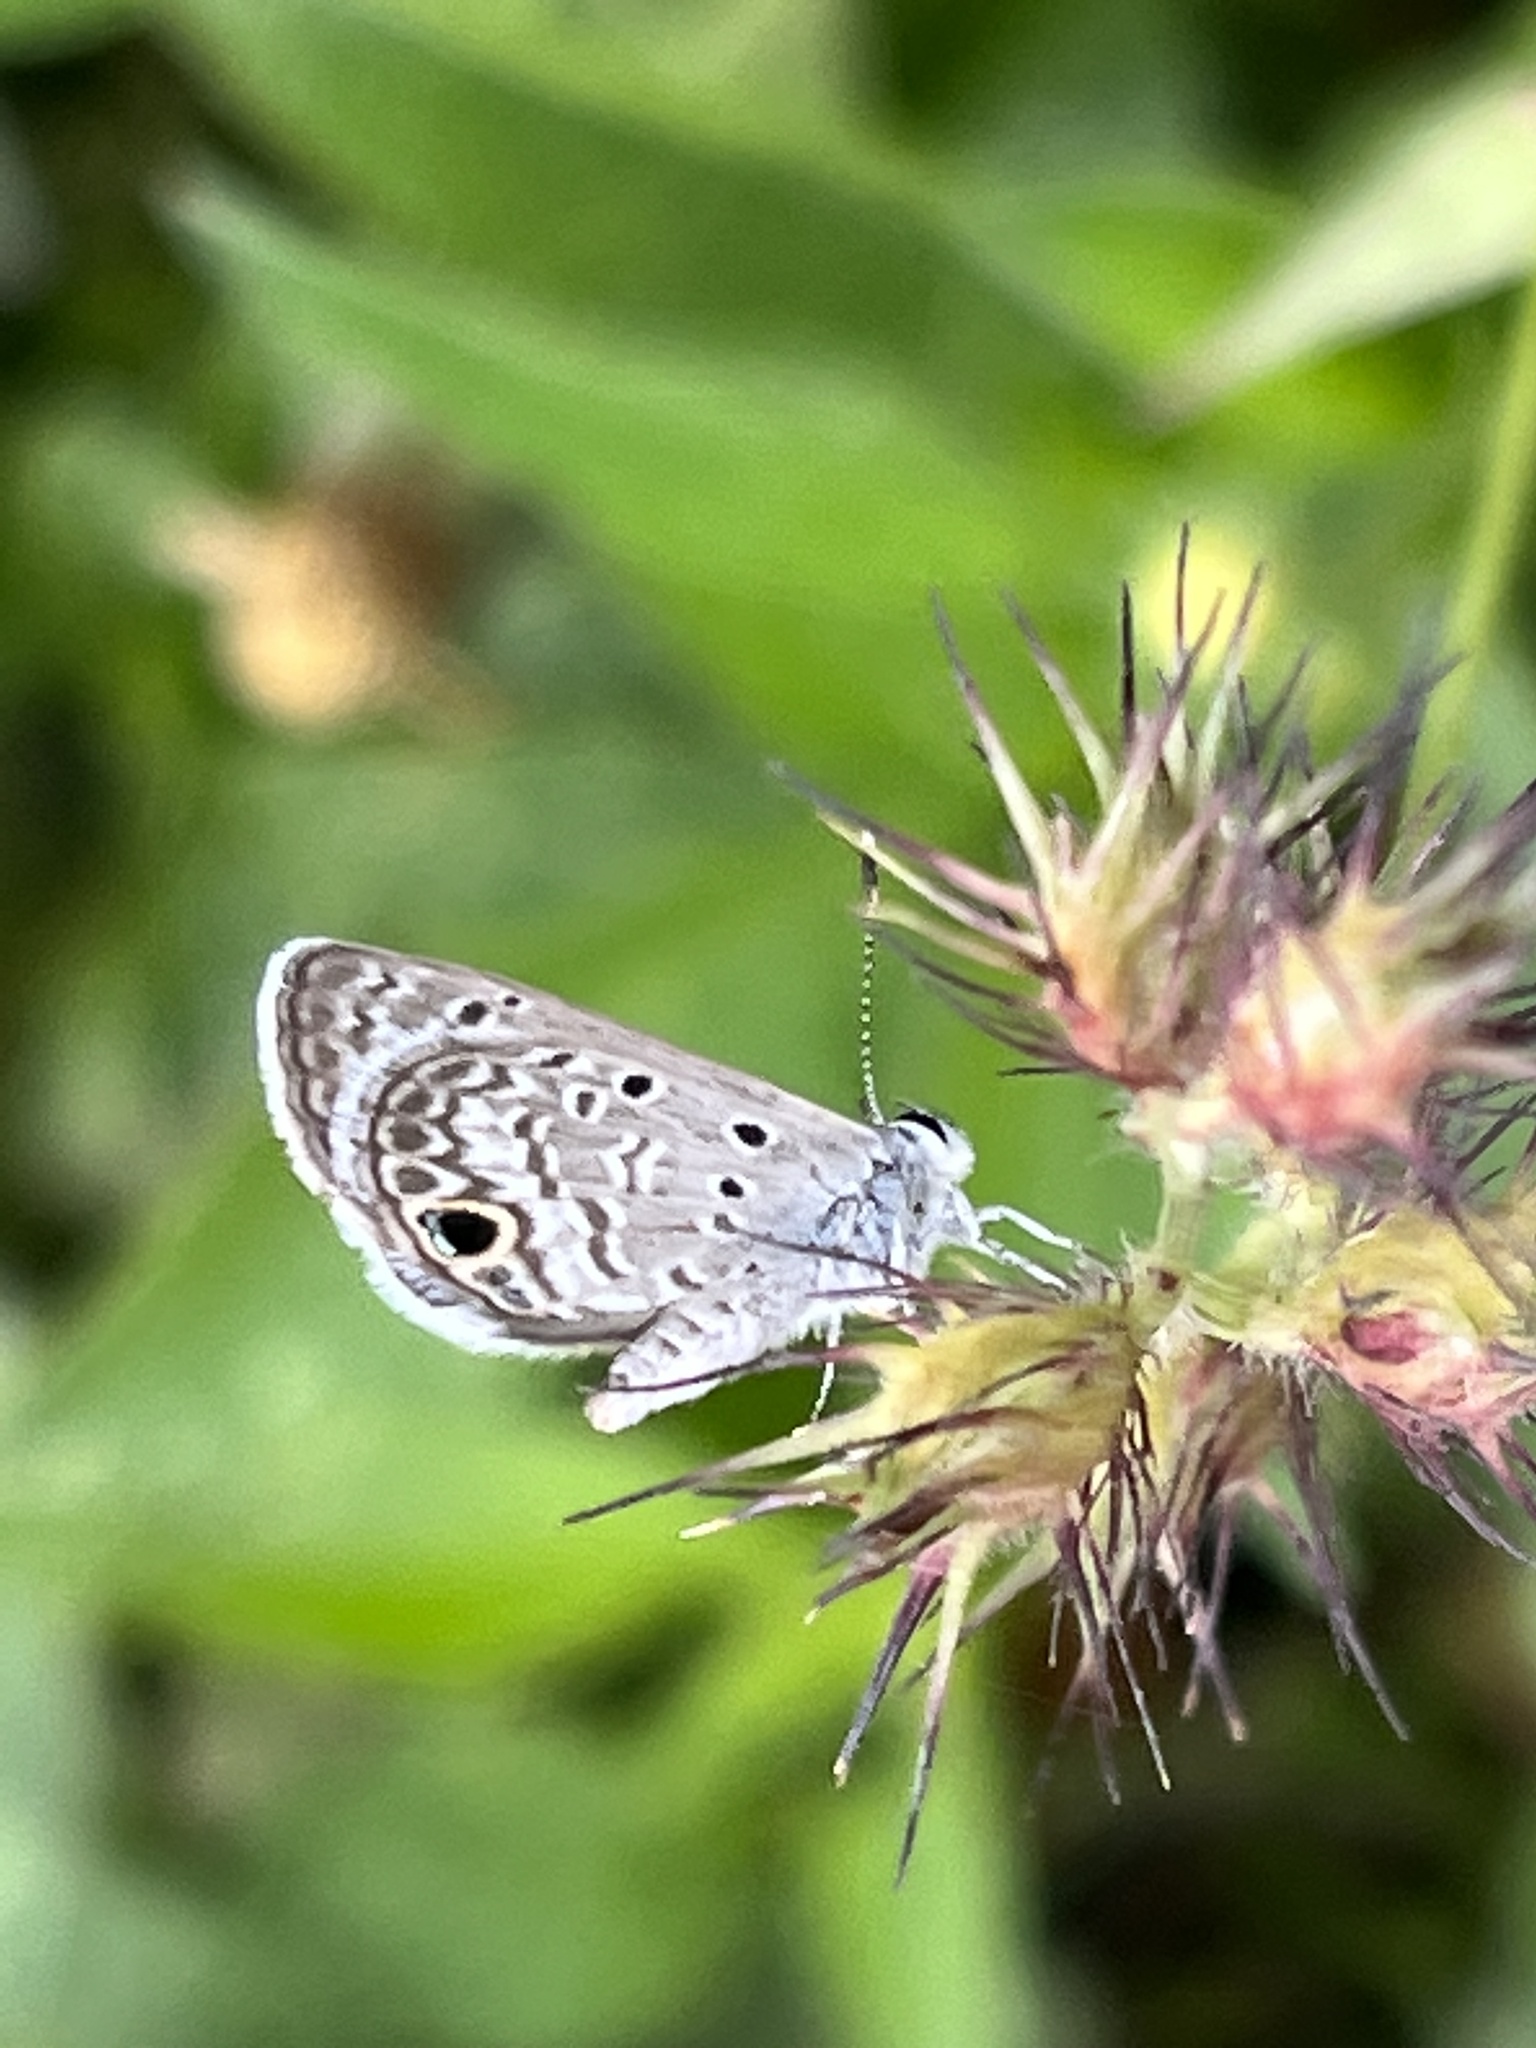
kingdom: Animalia
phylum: Arthropoda
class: Insecta
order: Lepidoptera
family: Lycaenidae
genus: Hemiargus
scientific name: Hemiargus ceraunus
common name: Ceraunus blue
